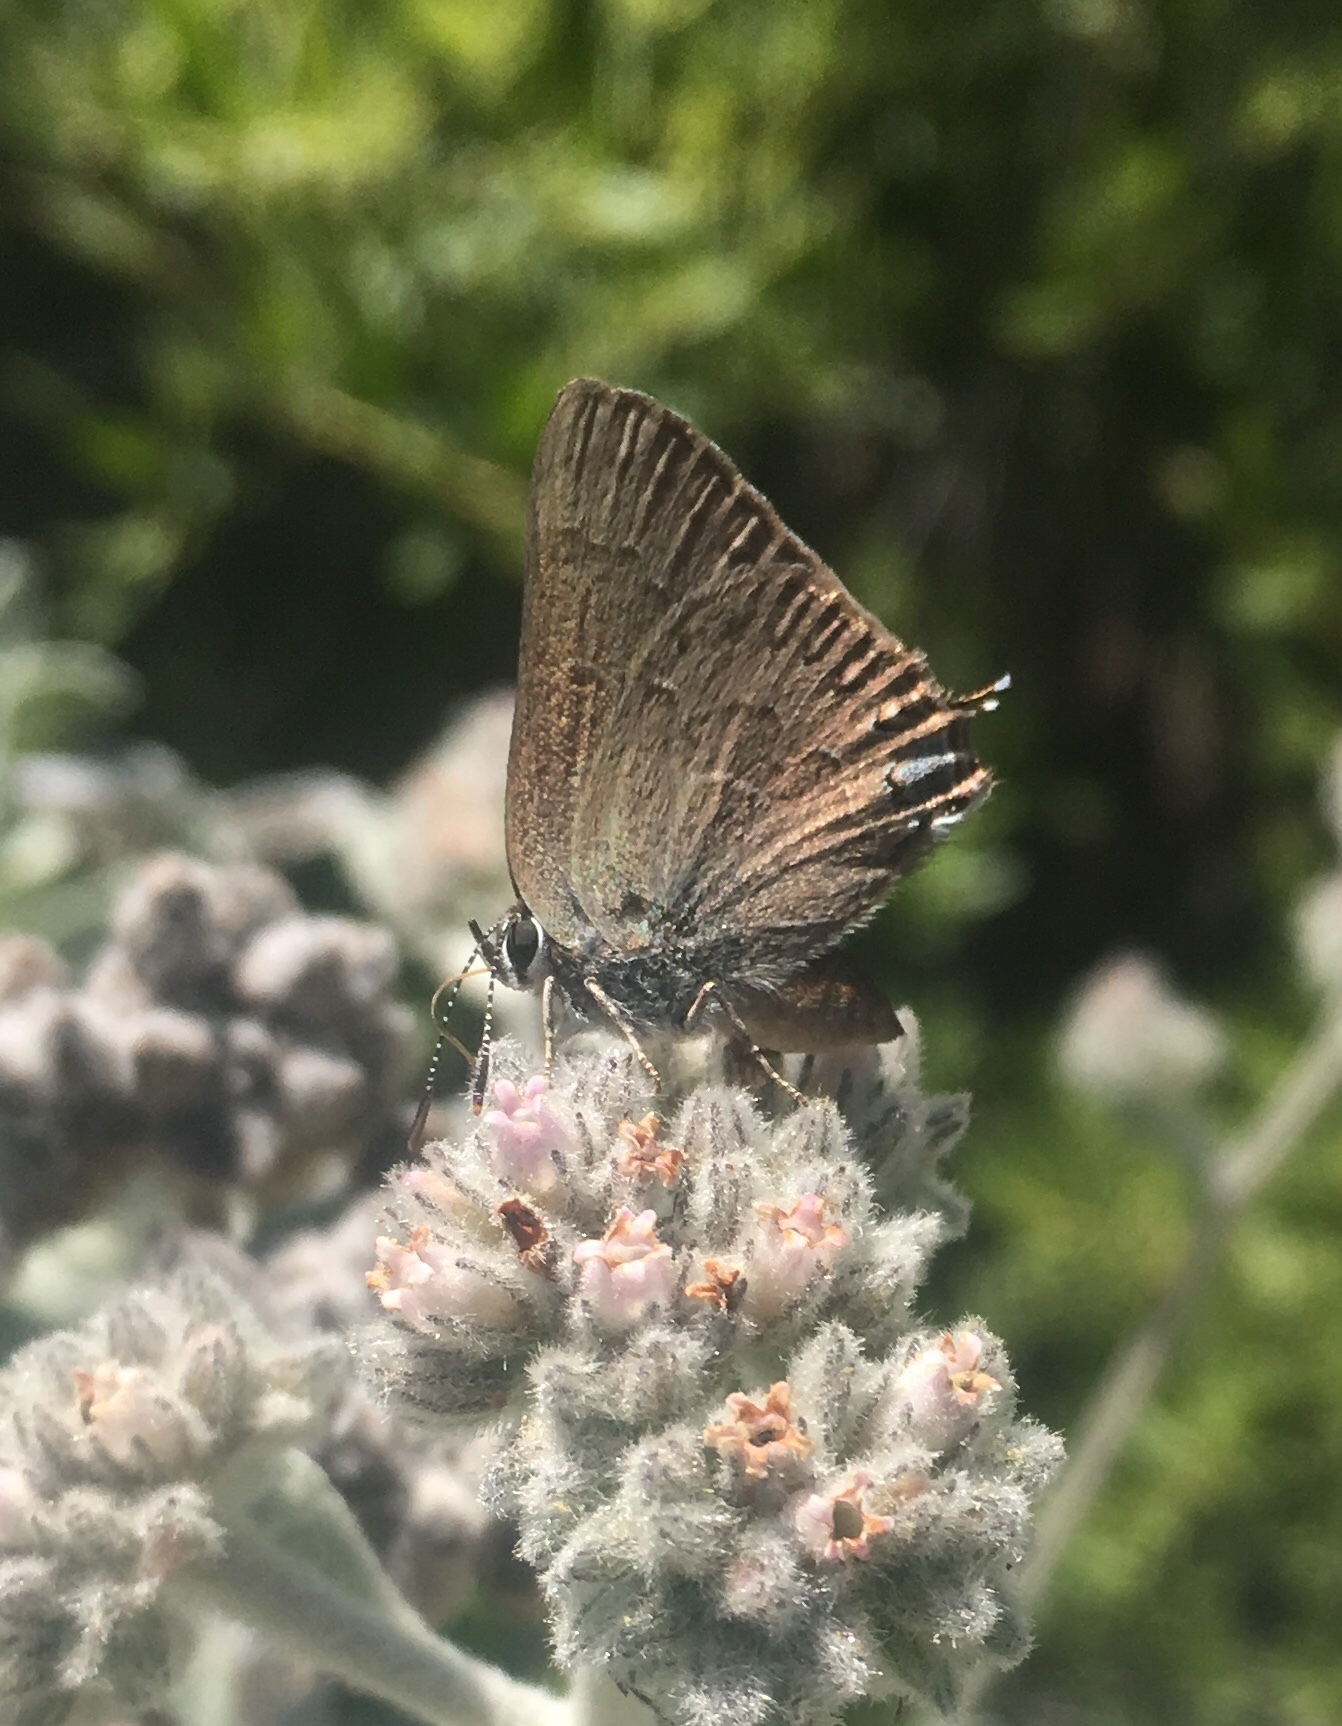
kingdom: Animalia
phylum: Arthropoda
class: Insecta
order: Lepidoptera
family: Lycaenidae
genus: Strymon
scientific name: Strymon saepium
